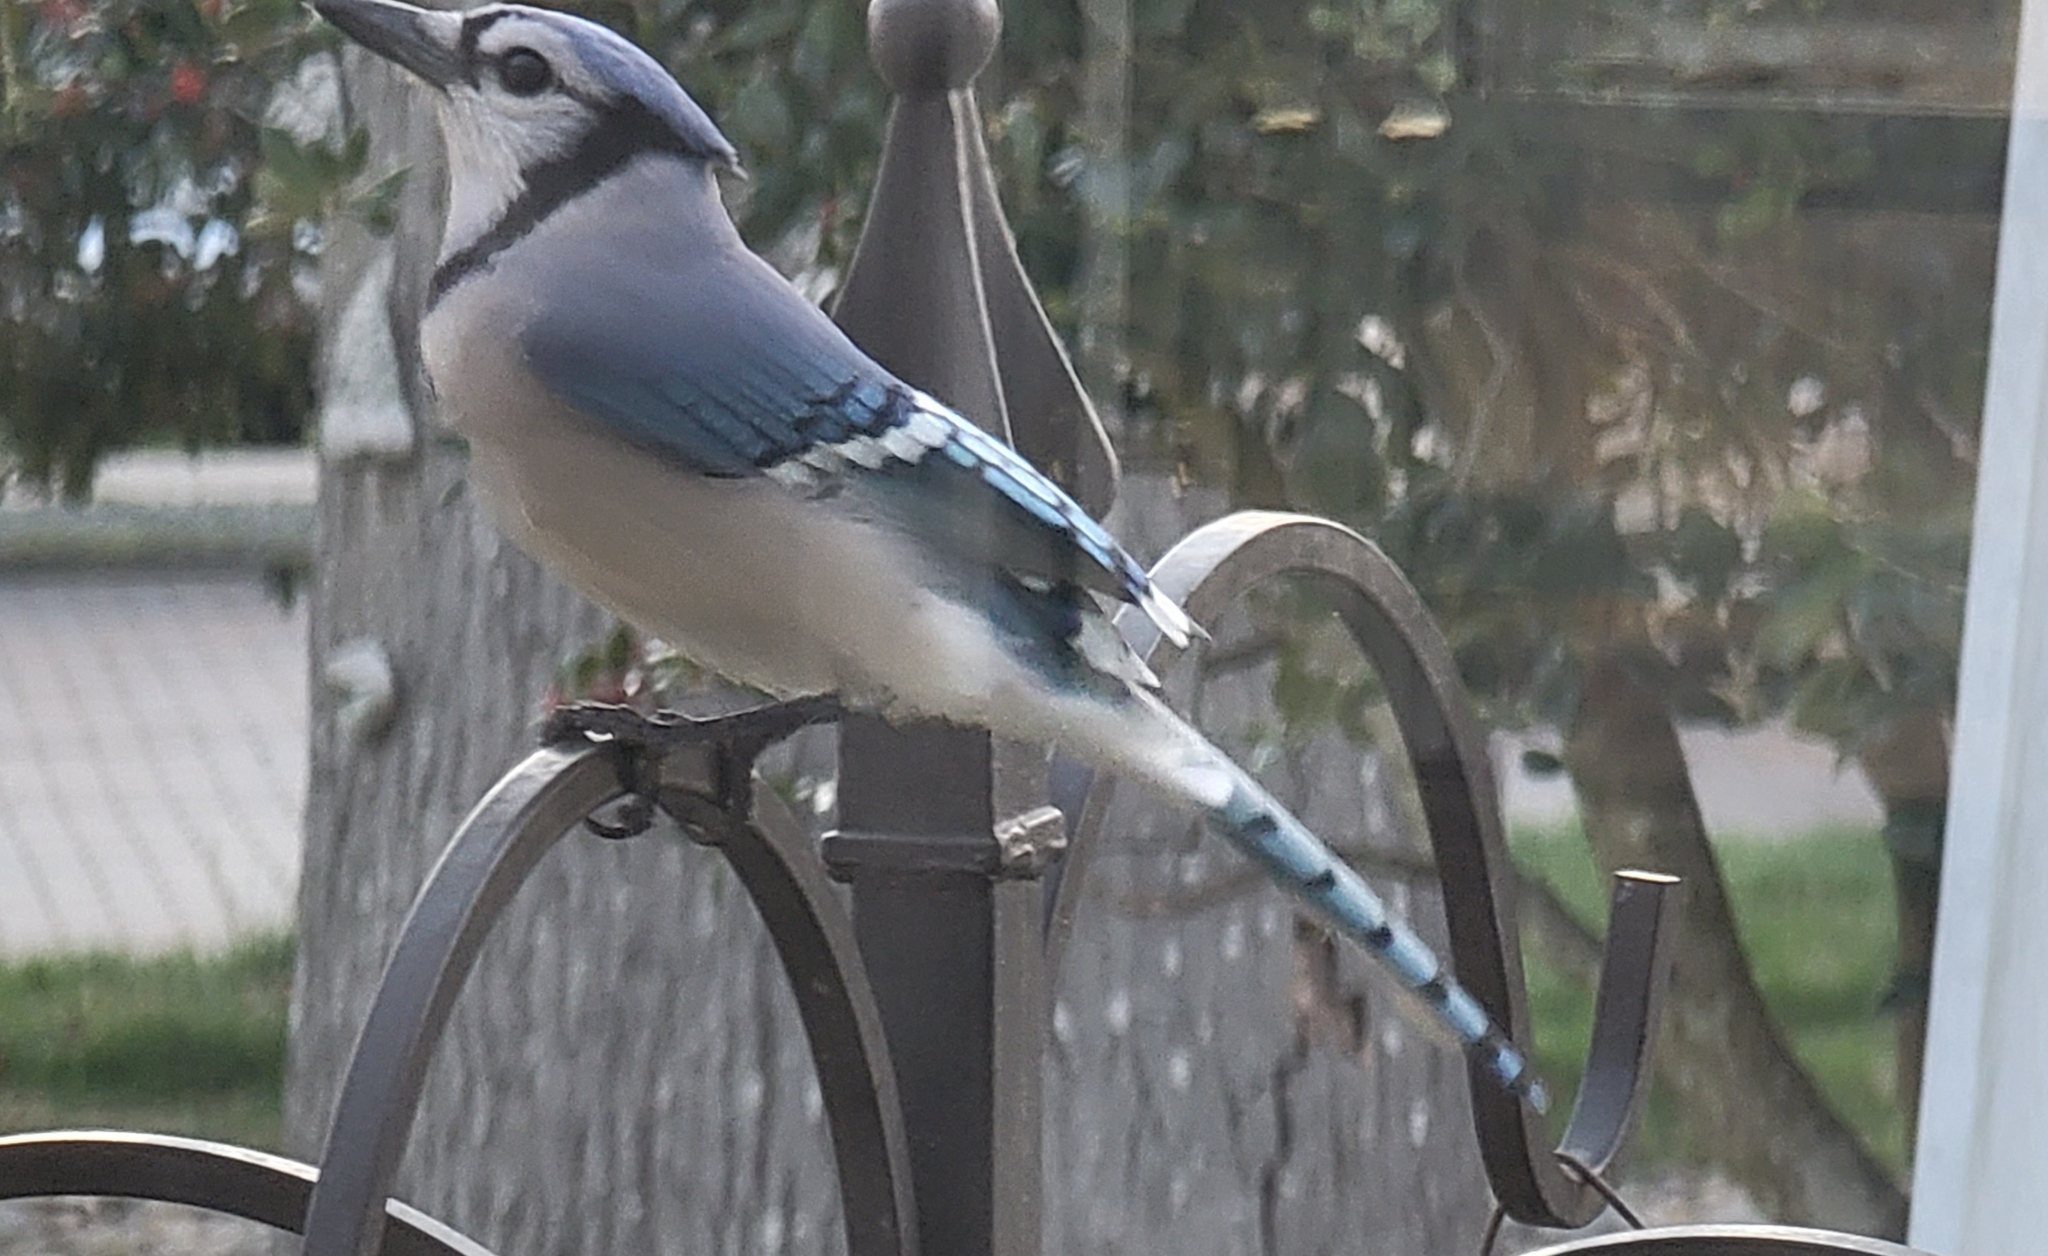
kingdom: Animalia
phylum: Chordata
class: Aves
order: Passeriformes
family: Corvidae
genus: Cyanocitta
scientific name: Cyanocitta cristata
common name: Blue jay
